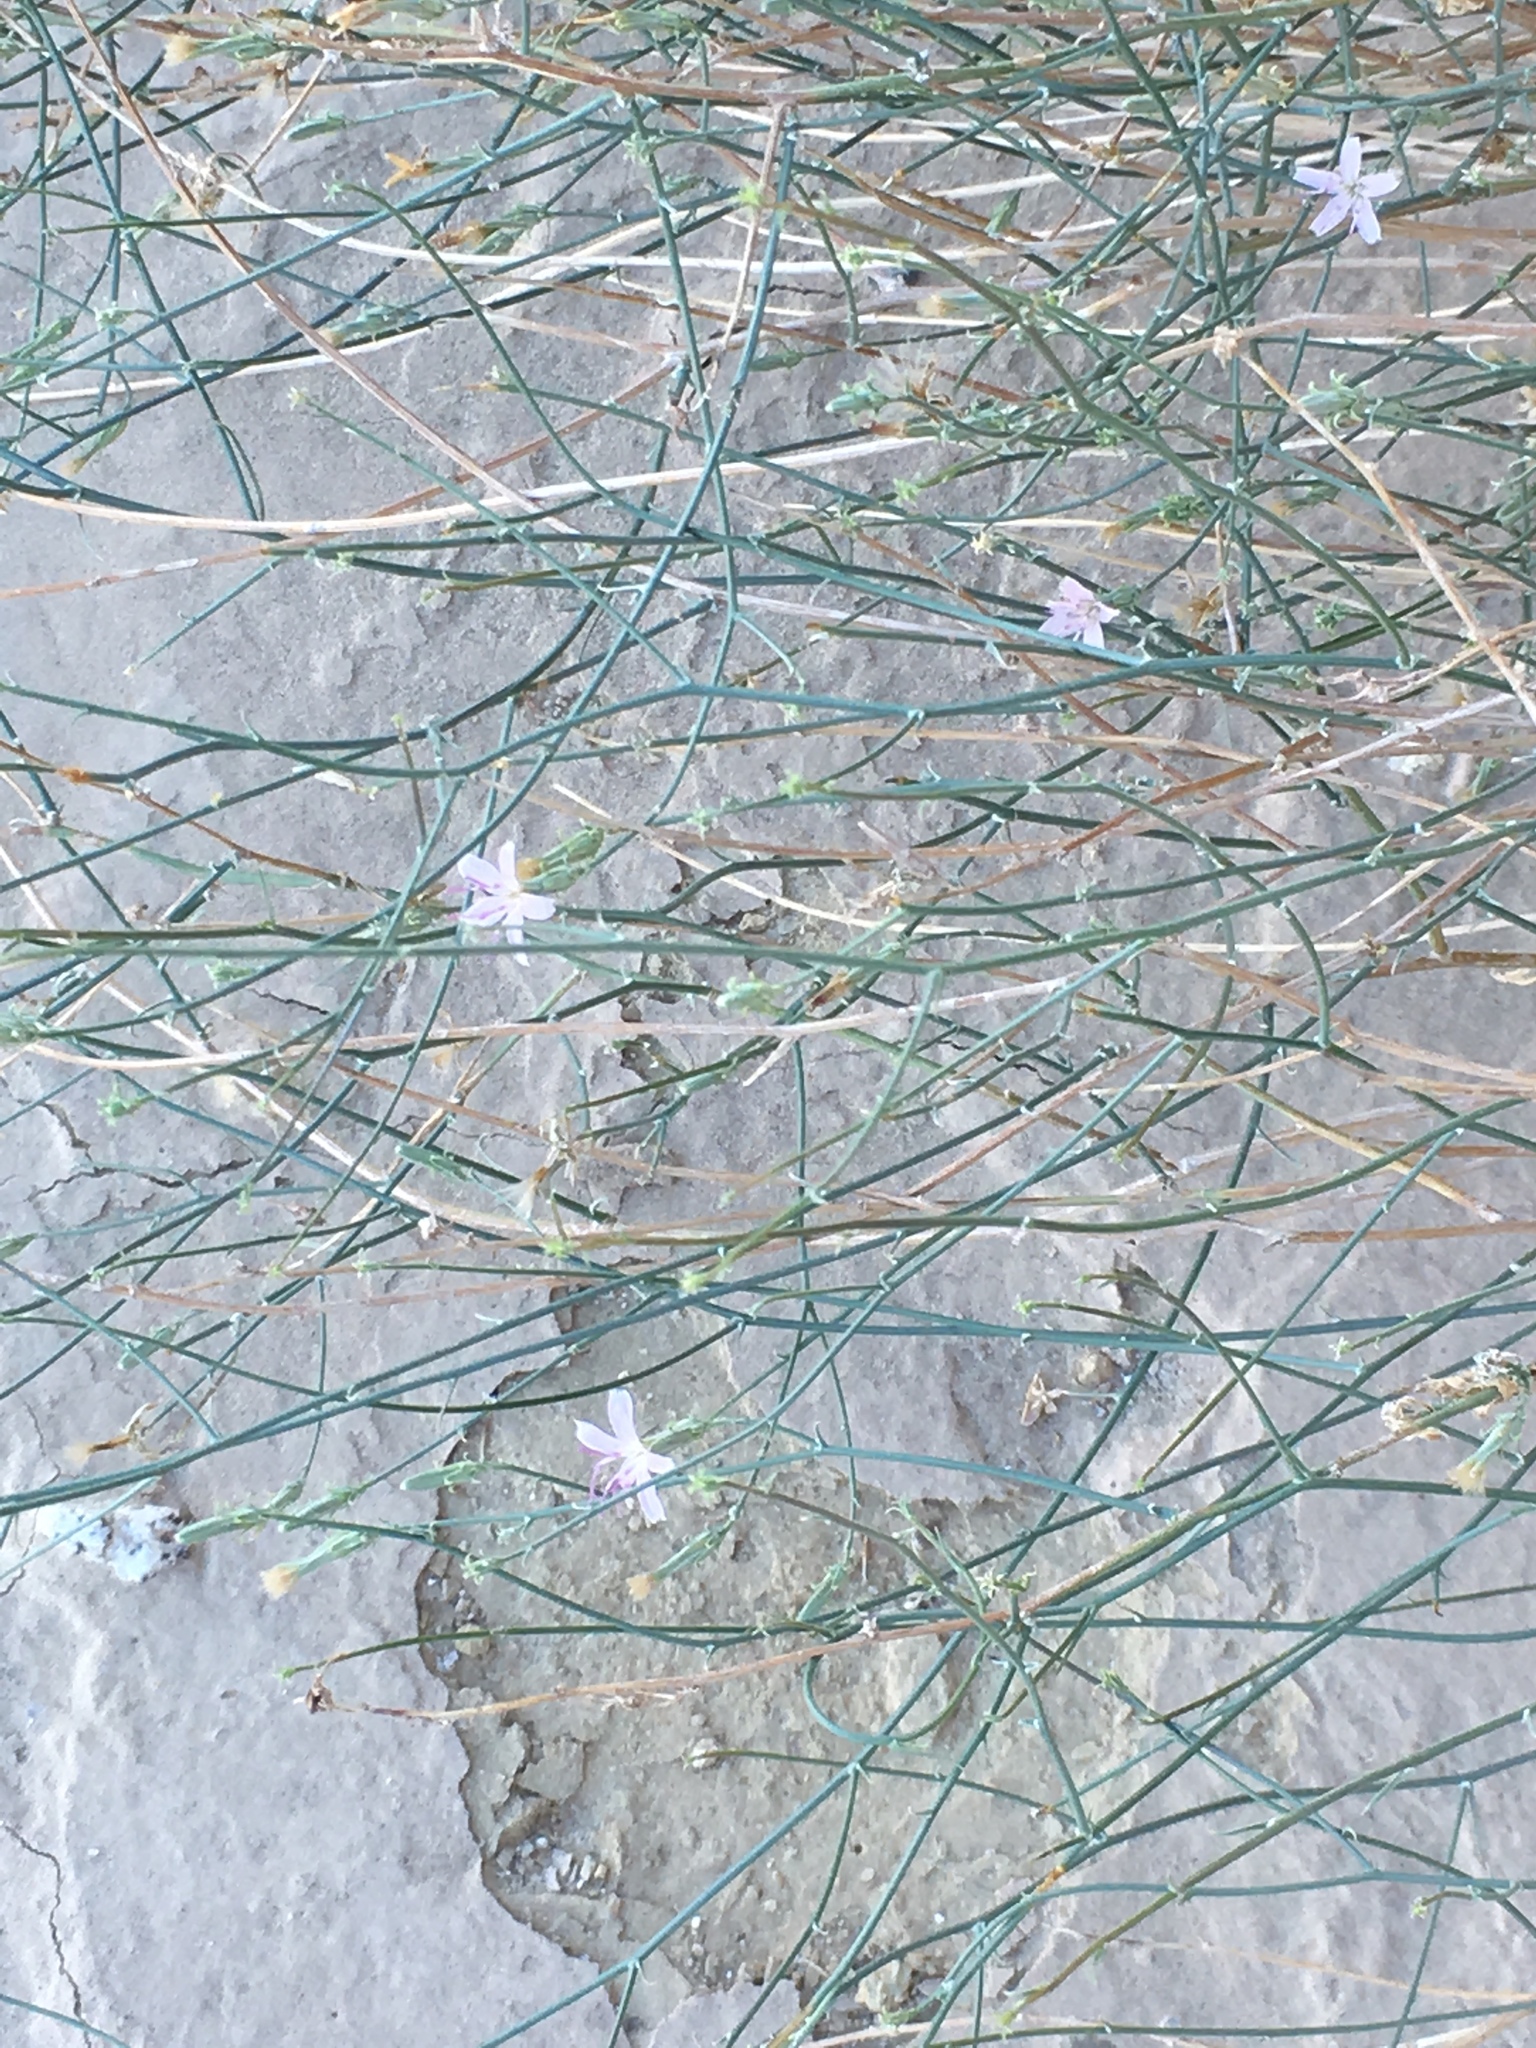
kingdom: Plantae
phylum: Tracheophyta
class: Magnoliopsida
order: Asterales
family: Asteraceae
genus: Stephanomeria
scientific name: Stephanomeria pauciflora
